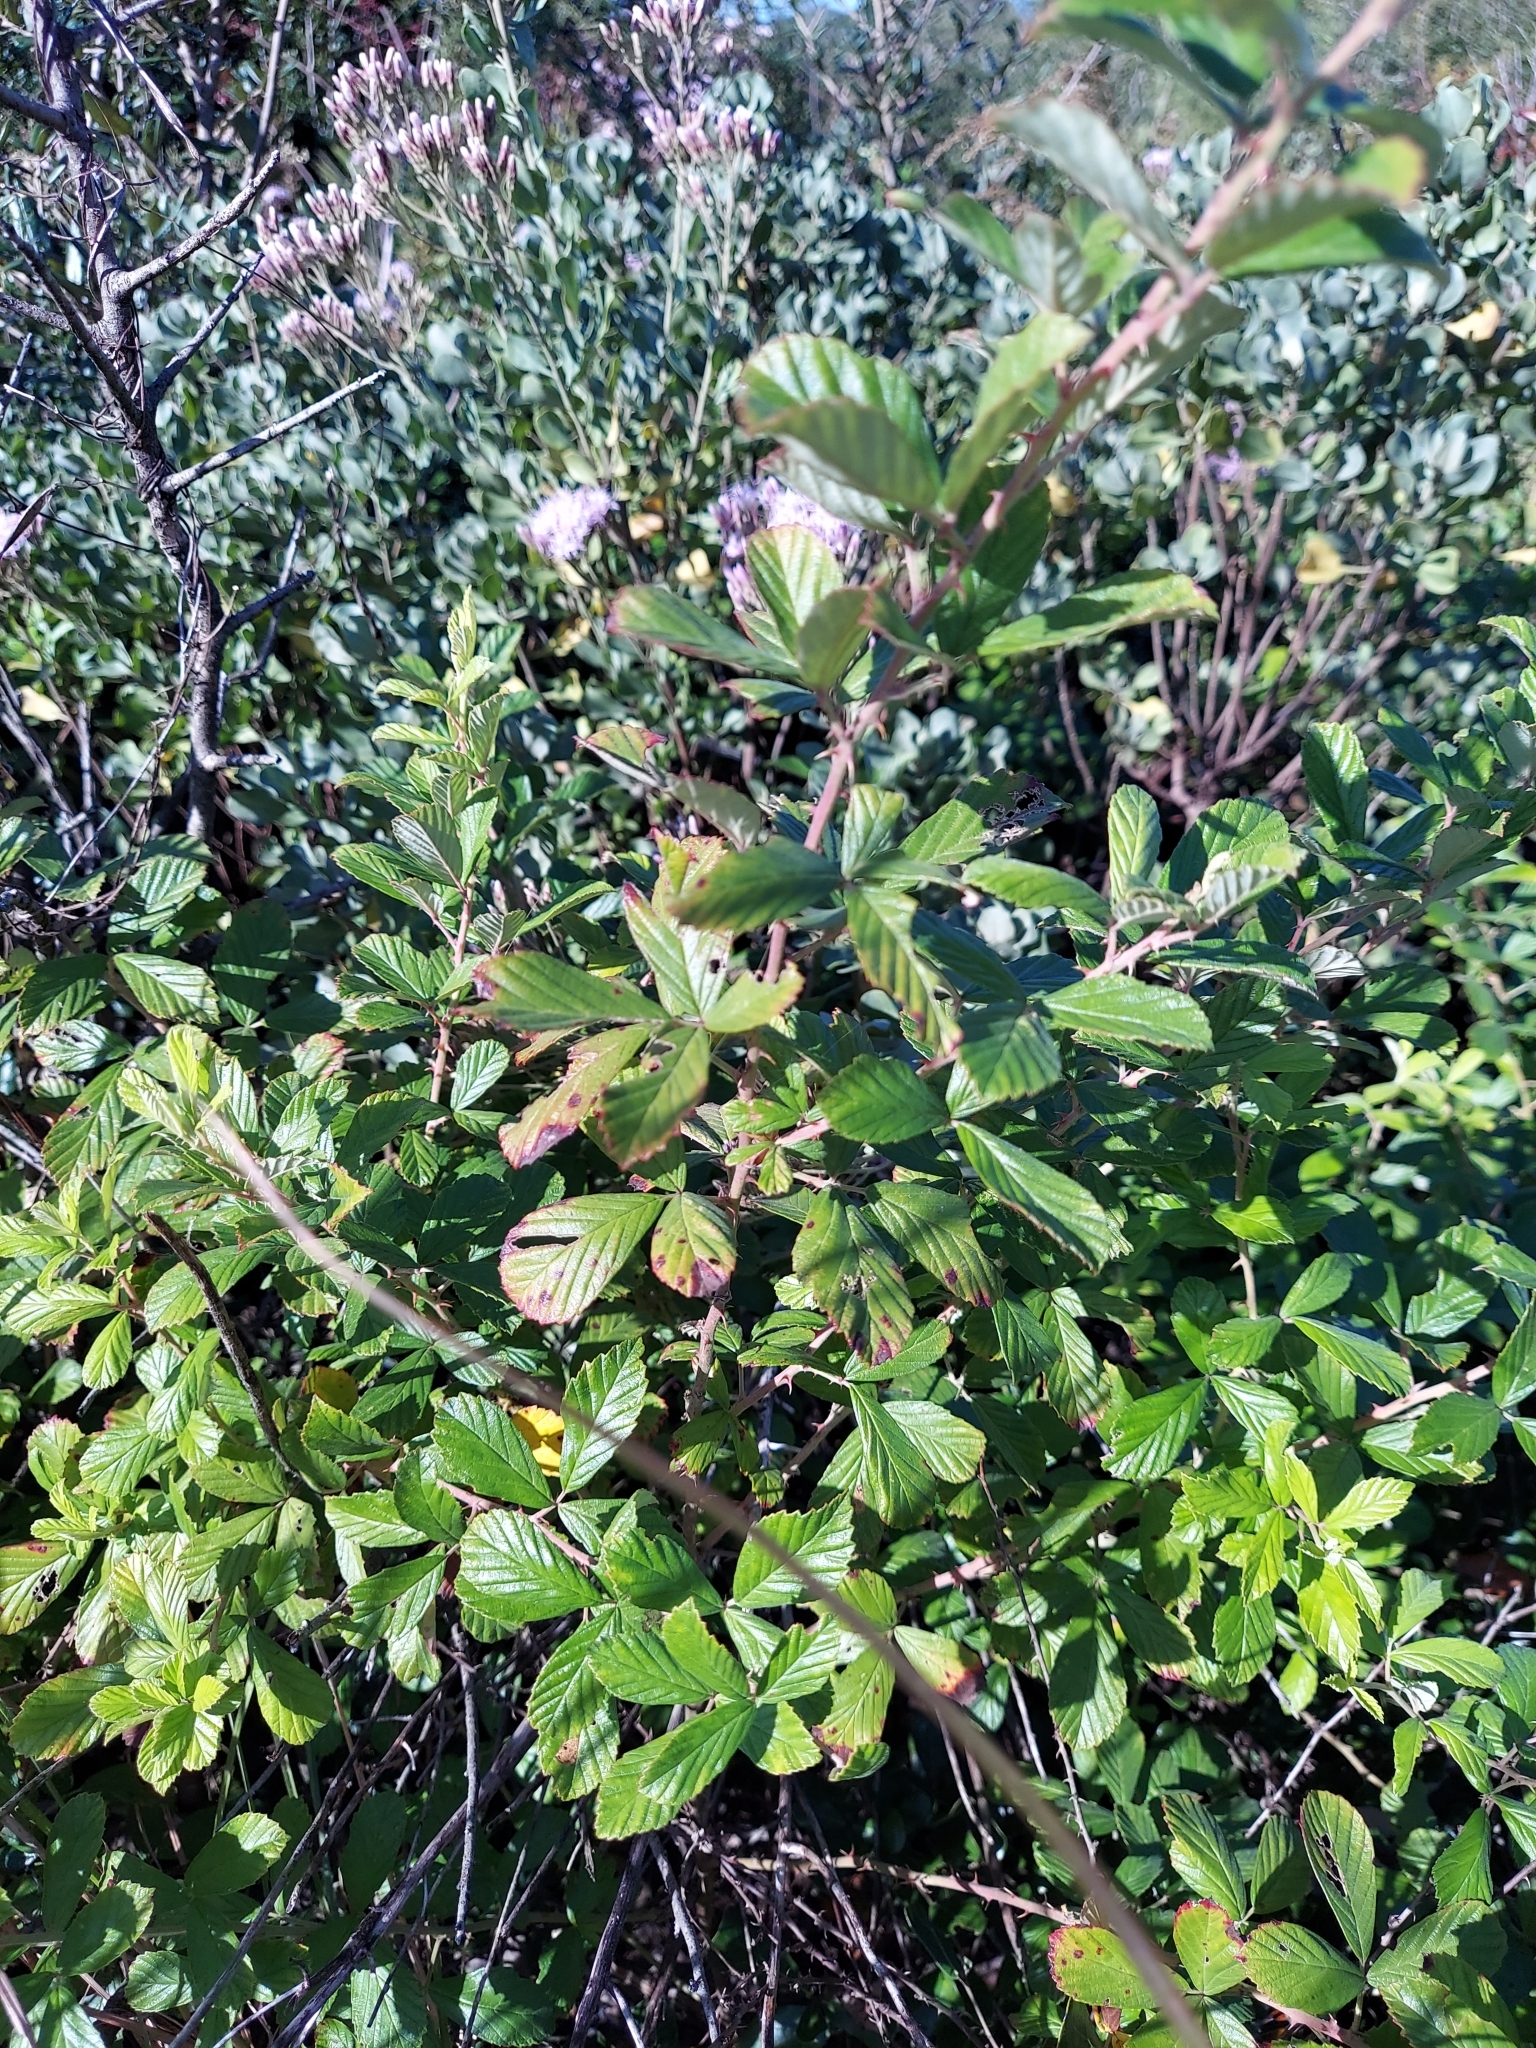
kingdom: Plantae
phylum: Tracheophyta
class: Magnoliopsida
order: Rosales
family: Rosaceae
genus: Rubus
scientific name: Rubus cuneifolius
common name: American bramble
